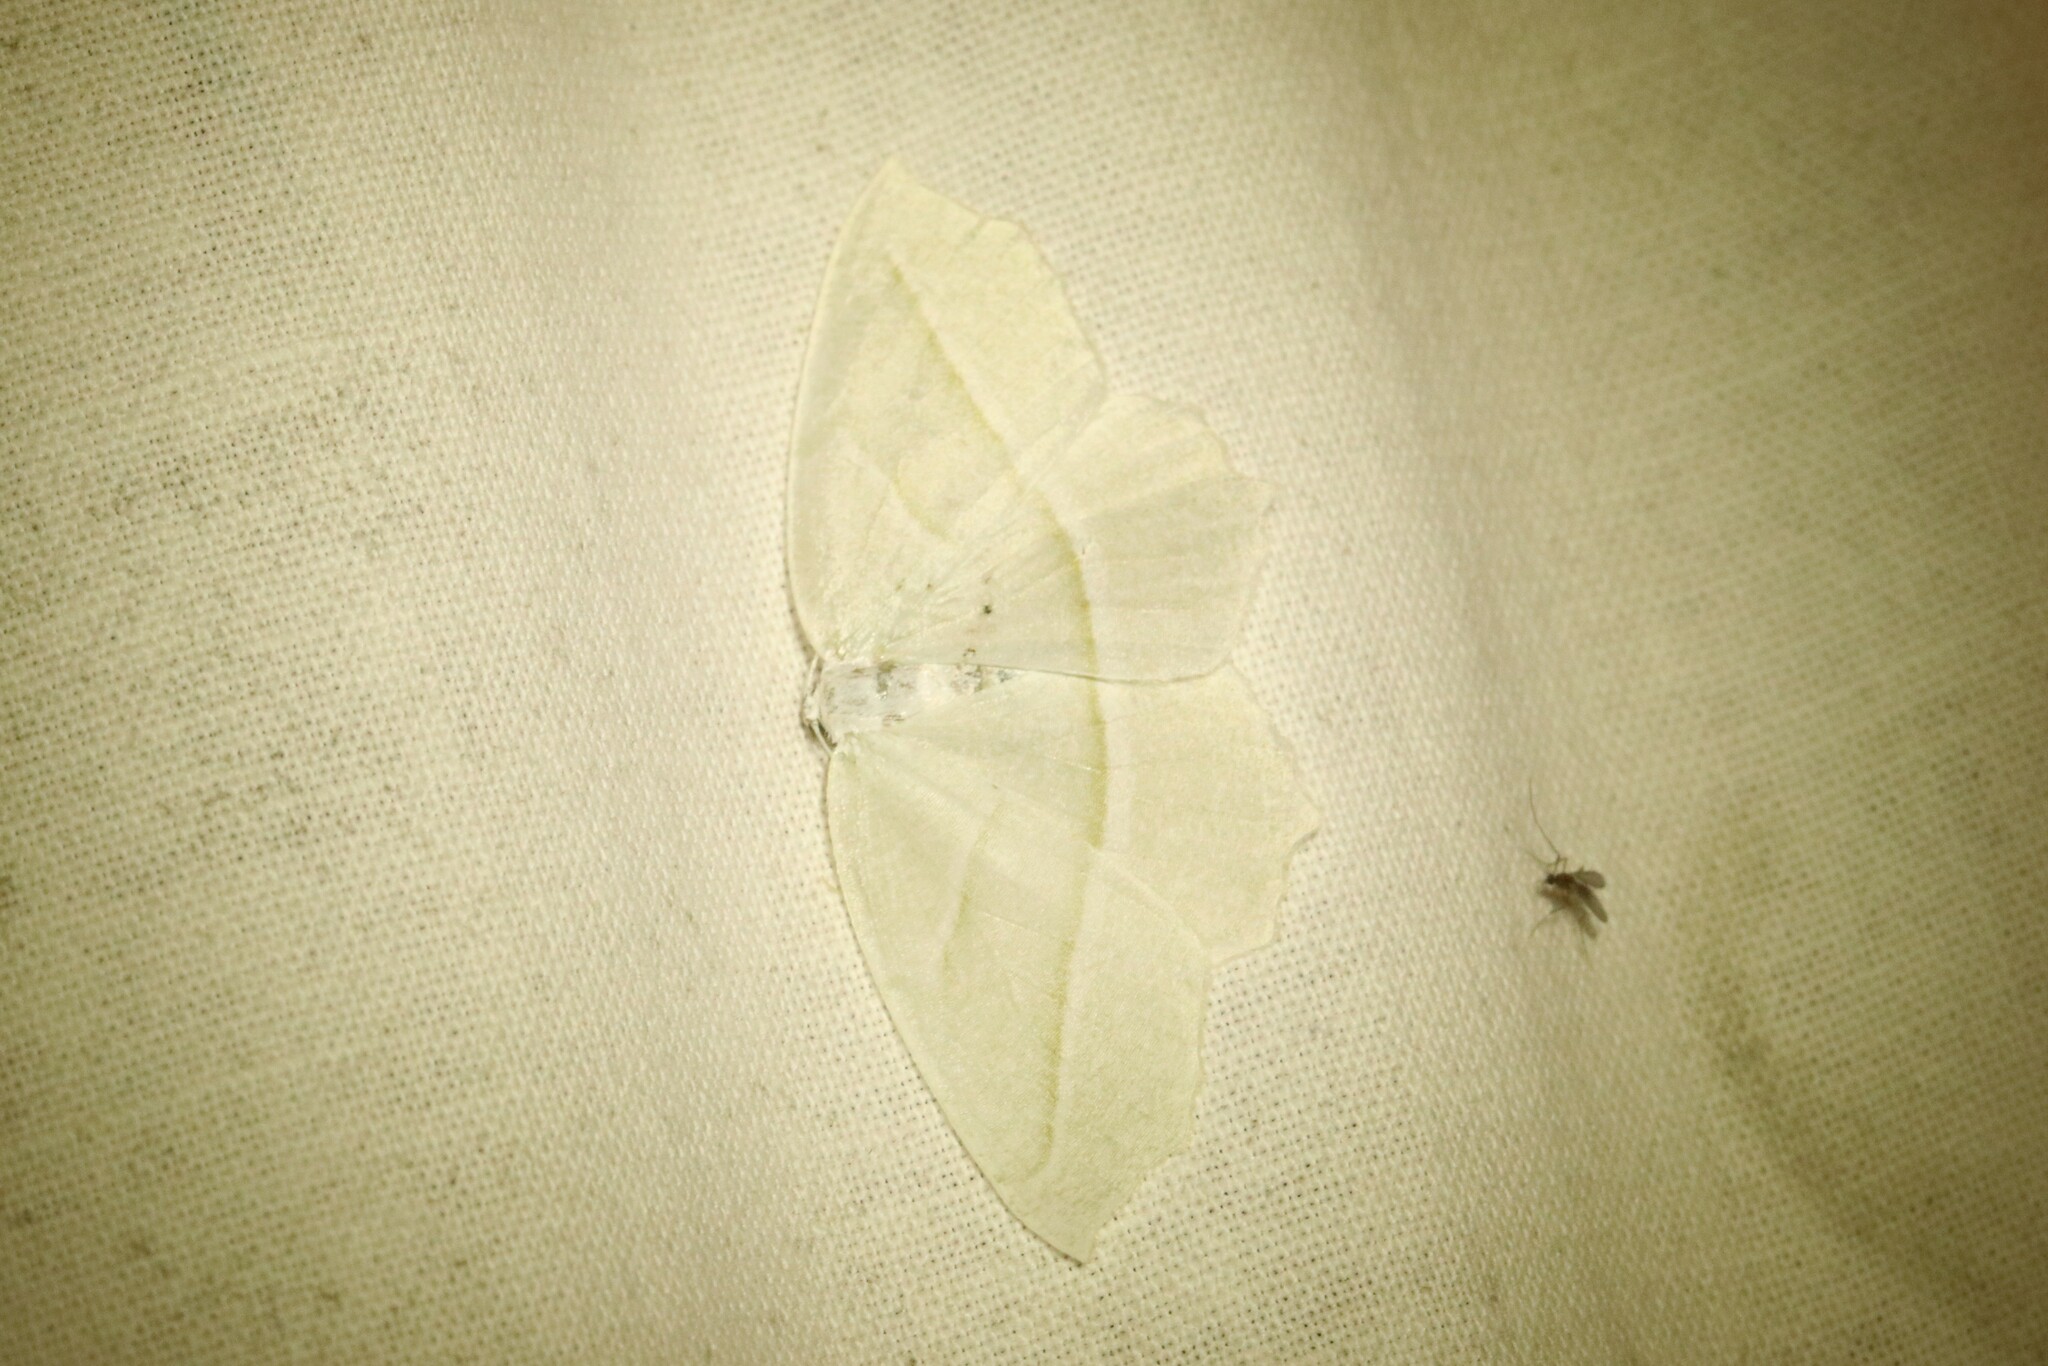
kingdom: Animalia
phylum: Arthropoda
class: Insecta
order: Lepidoptera
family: Geometridae
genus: Campaea
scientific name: Campaea perlata
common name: Fringed looper
